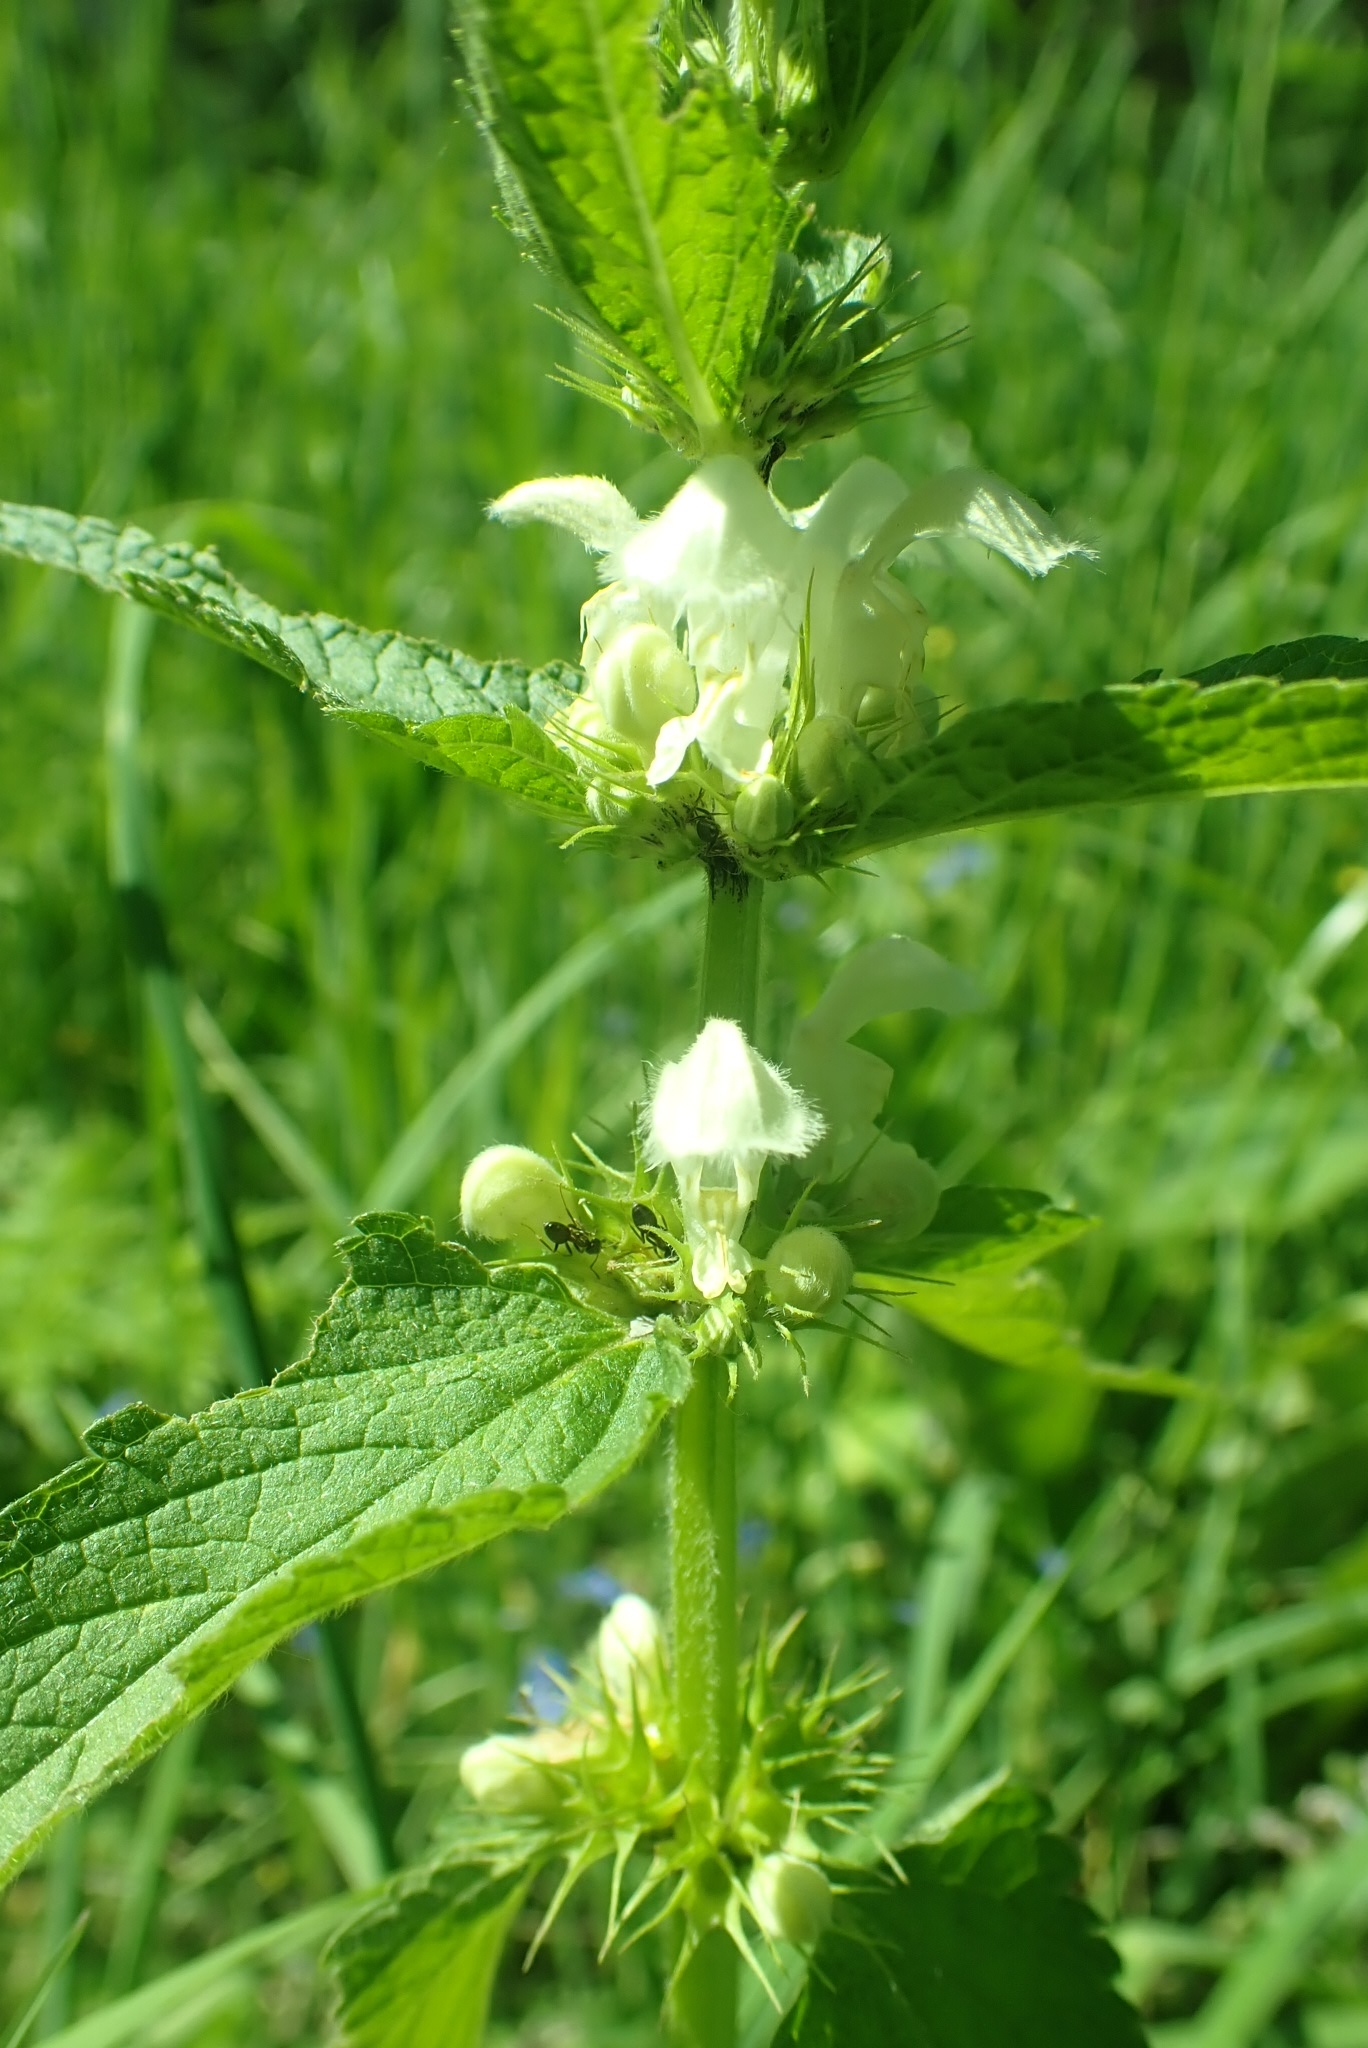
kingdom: Plantae
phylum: Tracheophyta
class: Magnoliopsida
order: Lamiales
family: Lamiaceae
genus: Lamium
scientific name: Lamium album
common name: White dead-nettle
